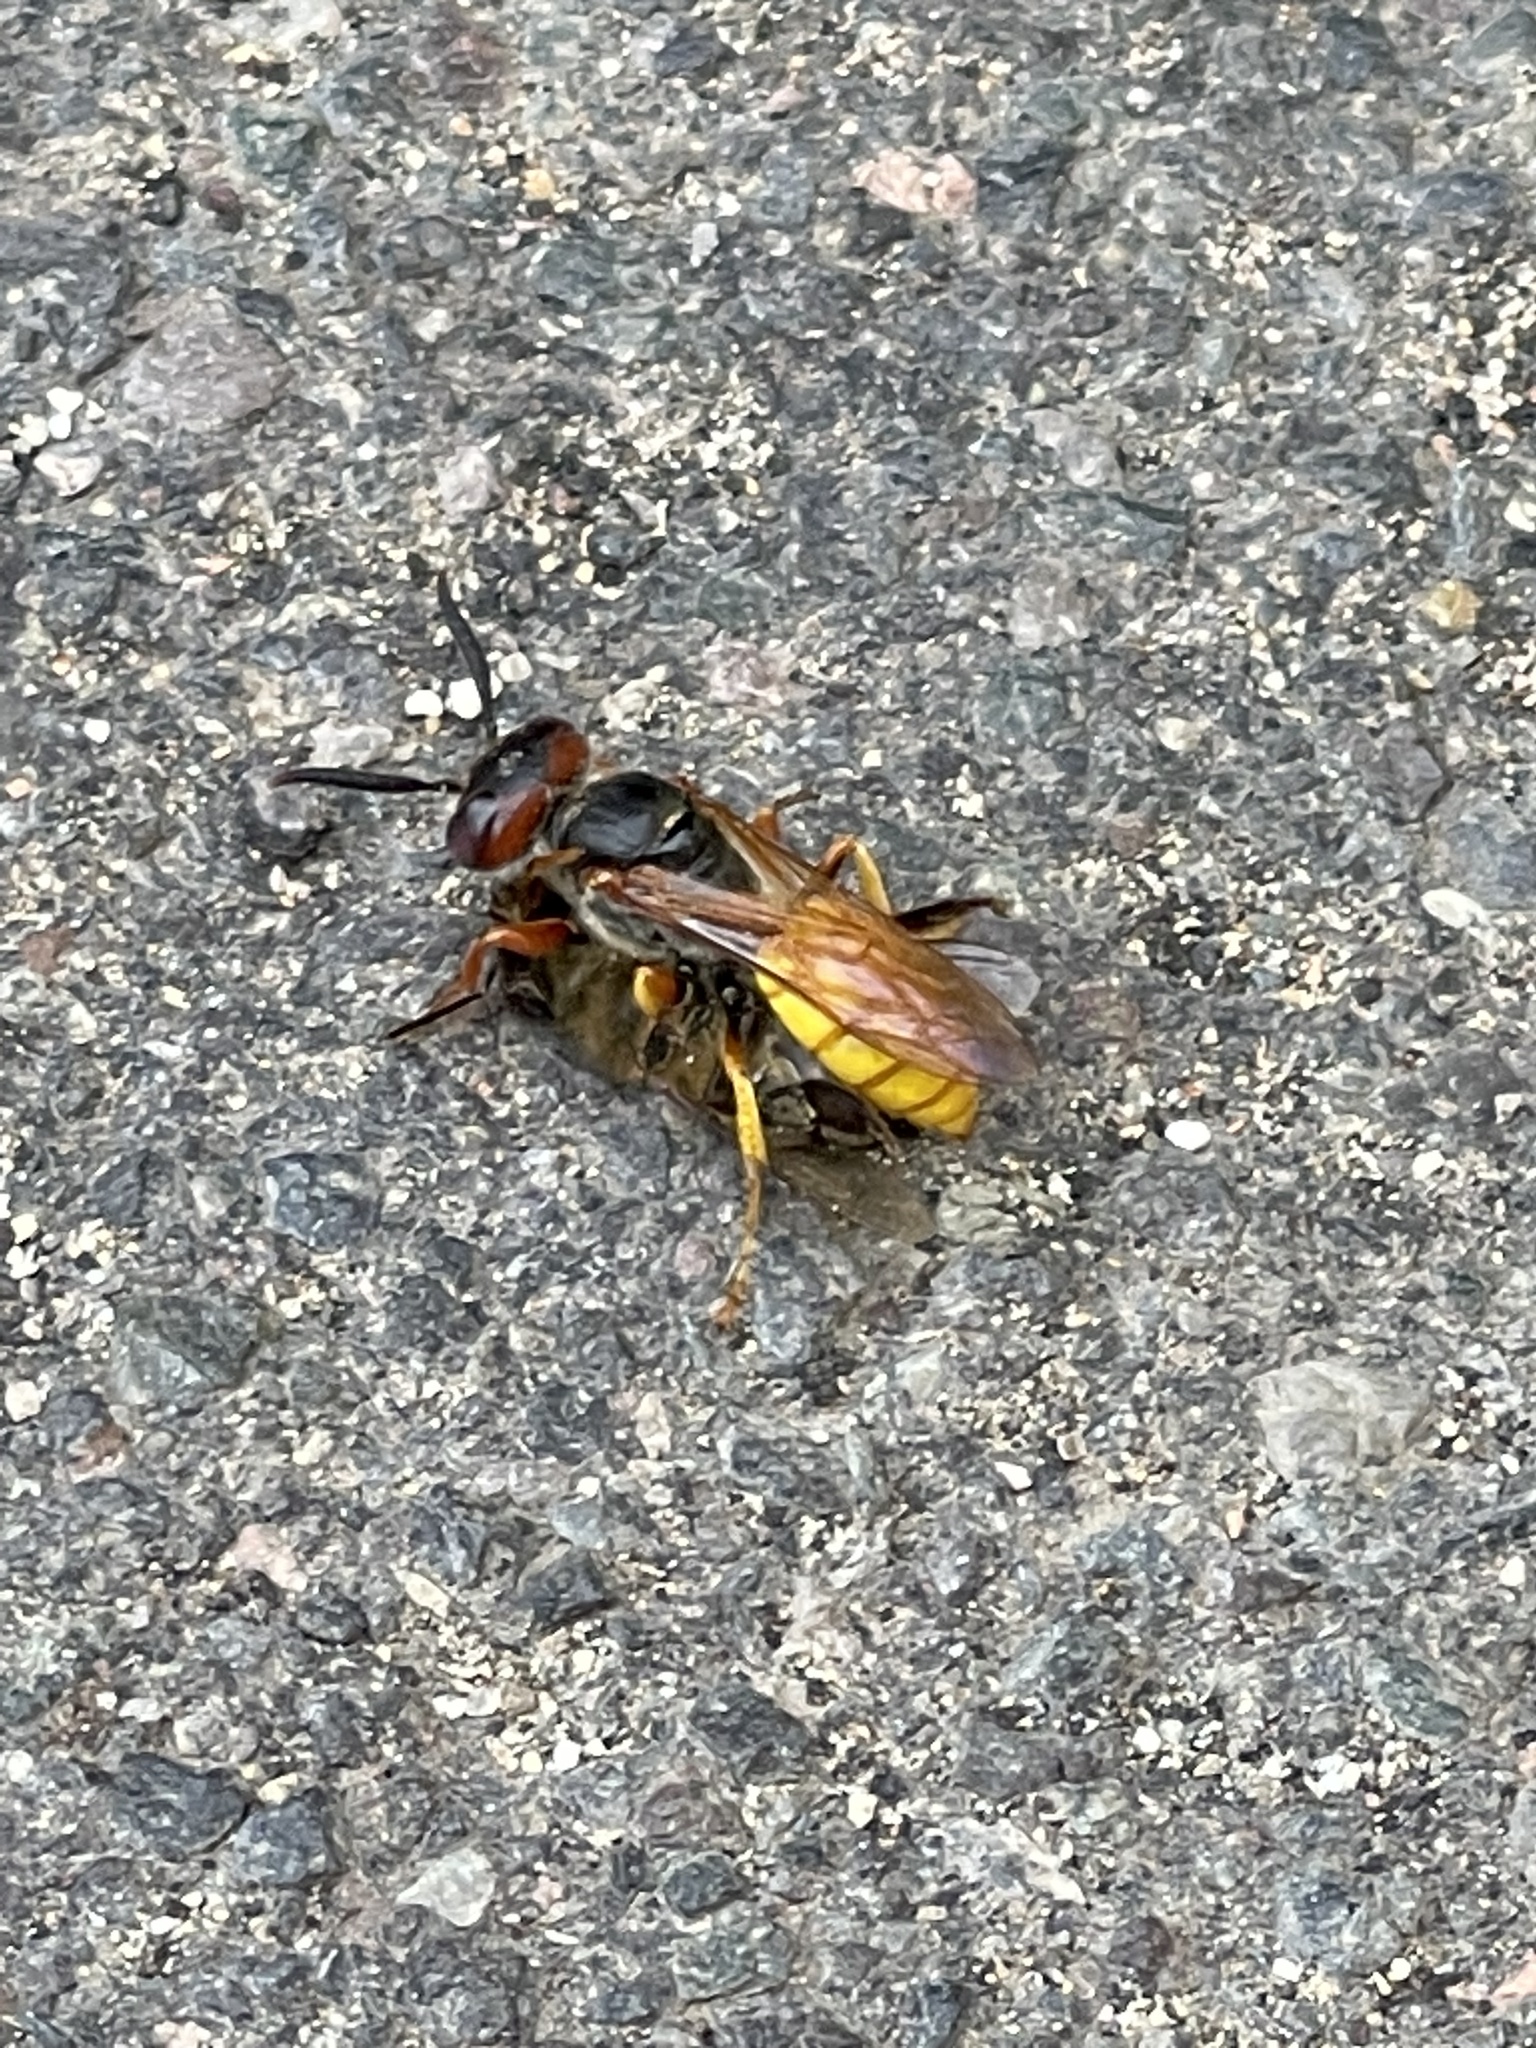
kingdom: Animalia
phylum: Arthropoda
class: Insecta
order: Hymenoptera
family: Crabronidae
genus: Philanthus
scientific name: Philanthus triangulum
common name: Bee wolf
